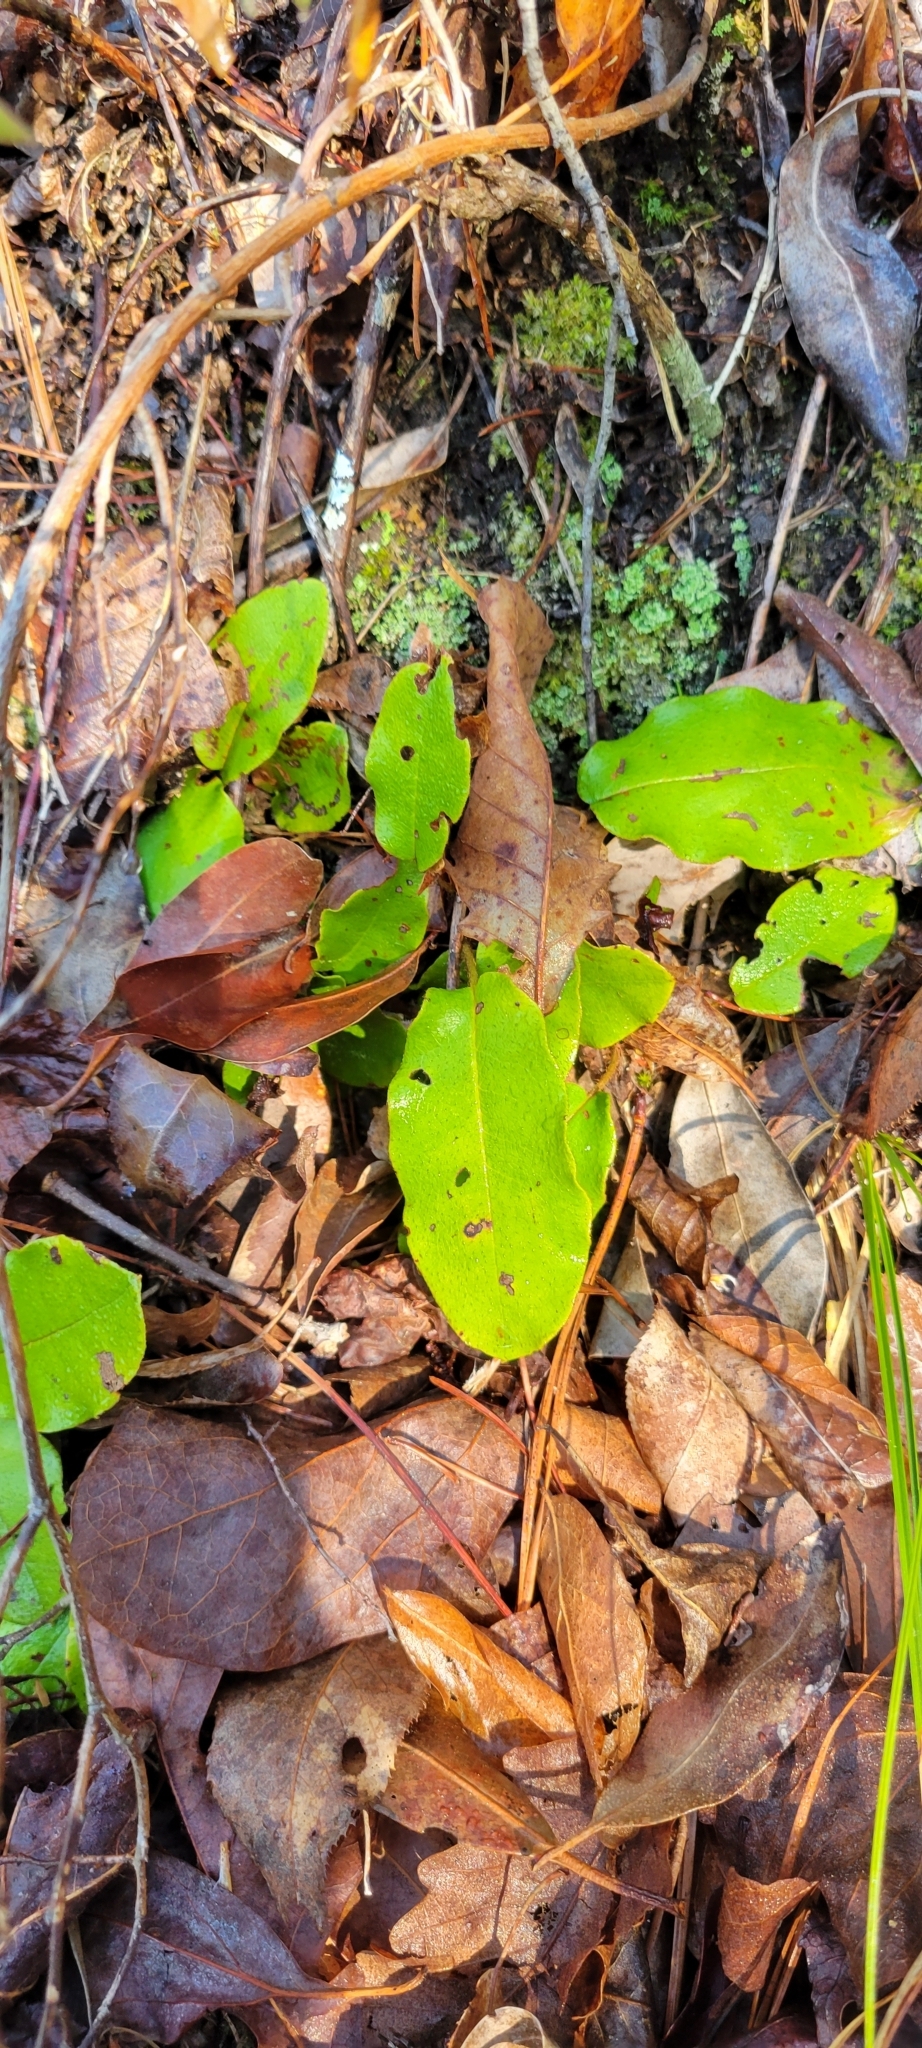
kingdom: Plantae
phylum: Tracheophyta
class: Magnoliopsida
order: Ericales
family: Ericaceae
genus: Epigaea
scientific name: Epigaea repens
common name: Gravelroot
